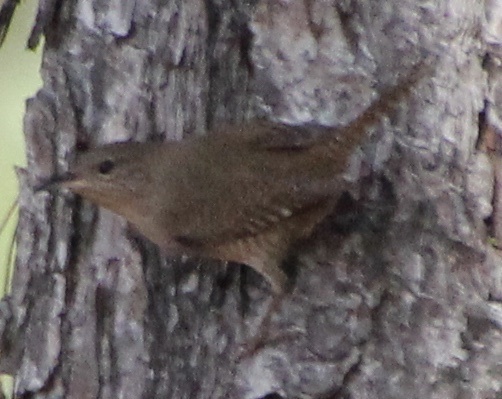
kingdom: Animalia
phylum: Chordata
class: Aves
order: Passeriformes
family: Troglodytidae
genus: Troglodytes
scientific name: Troglodytes aedon
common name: House wren
